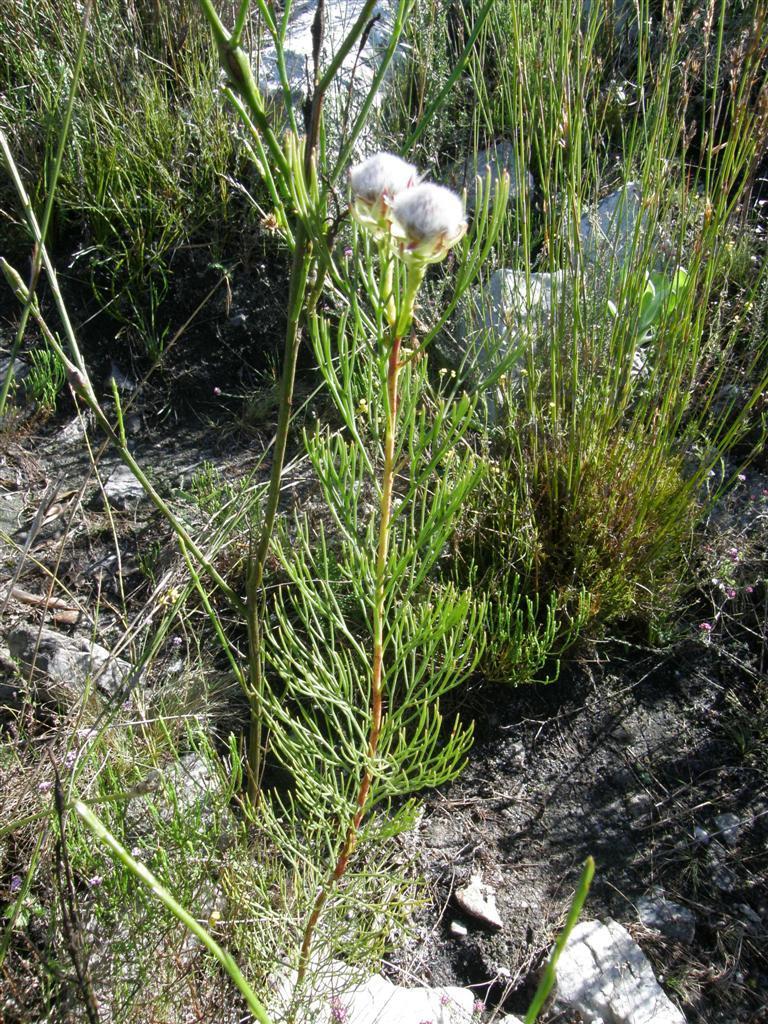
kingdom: Plantae
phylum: Tracheophyta
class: Magnoliopsida
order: Proteales
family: Proteaceae
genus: Serruria
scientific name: Serruria phylicoides
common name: Bearded spiderhead
